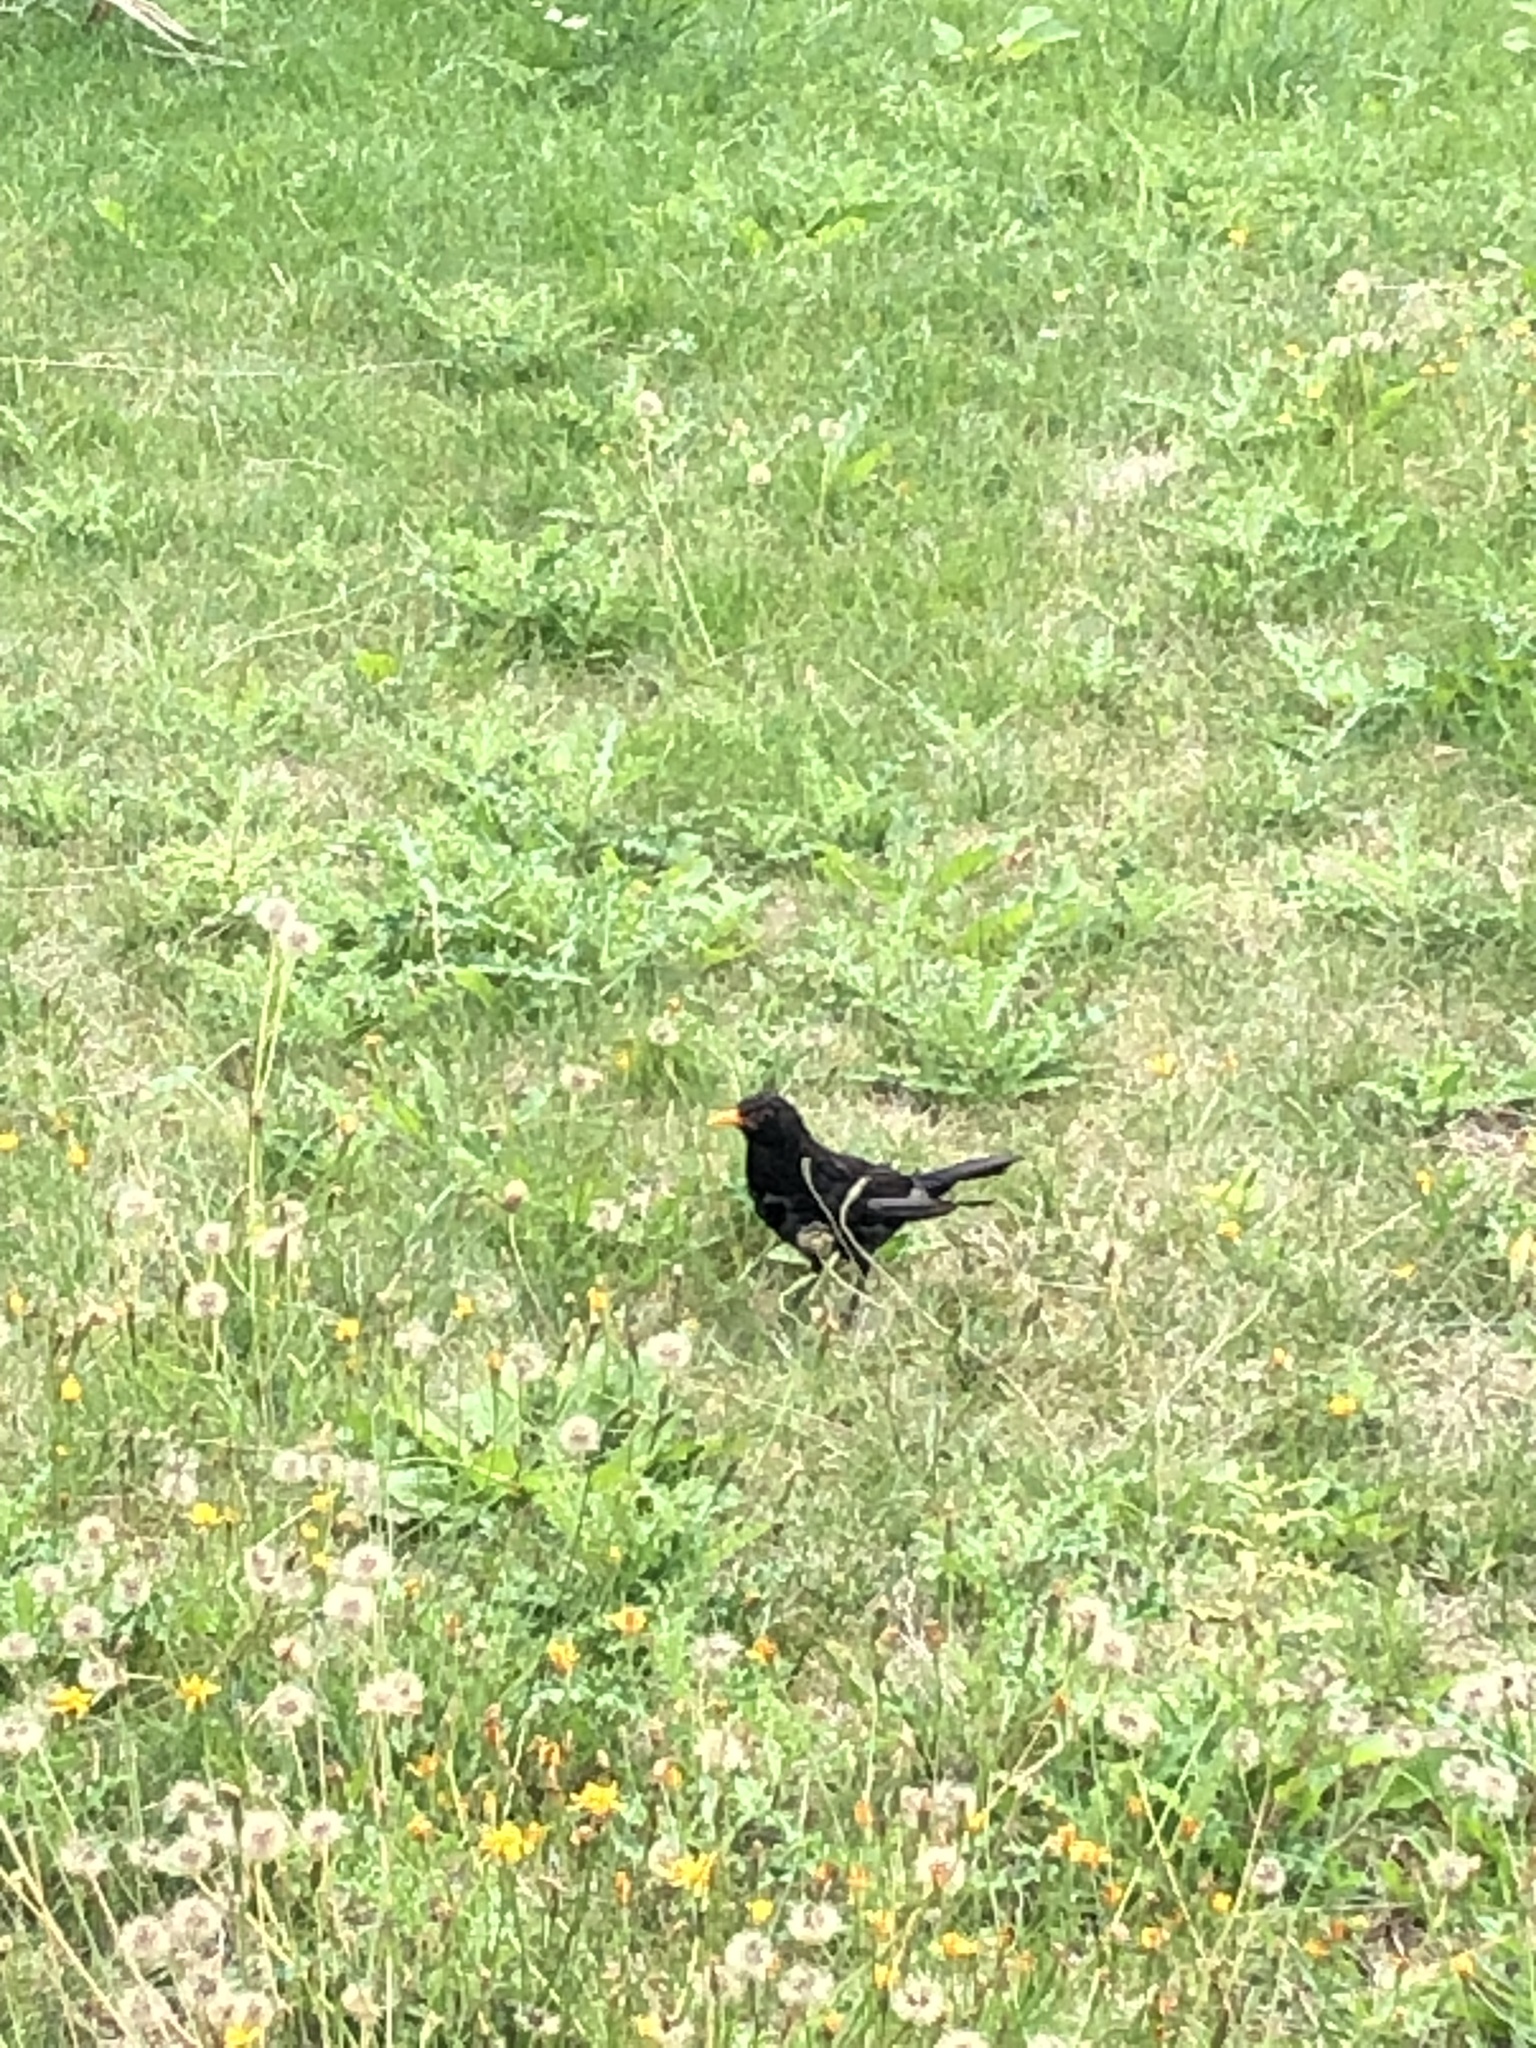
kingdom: Animalia
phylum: Chordata
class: Aves
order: Passeriformes
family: Turdidae
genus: Turdus
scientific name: Turdus merula
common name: Common blackbird
